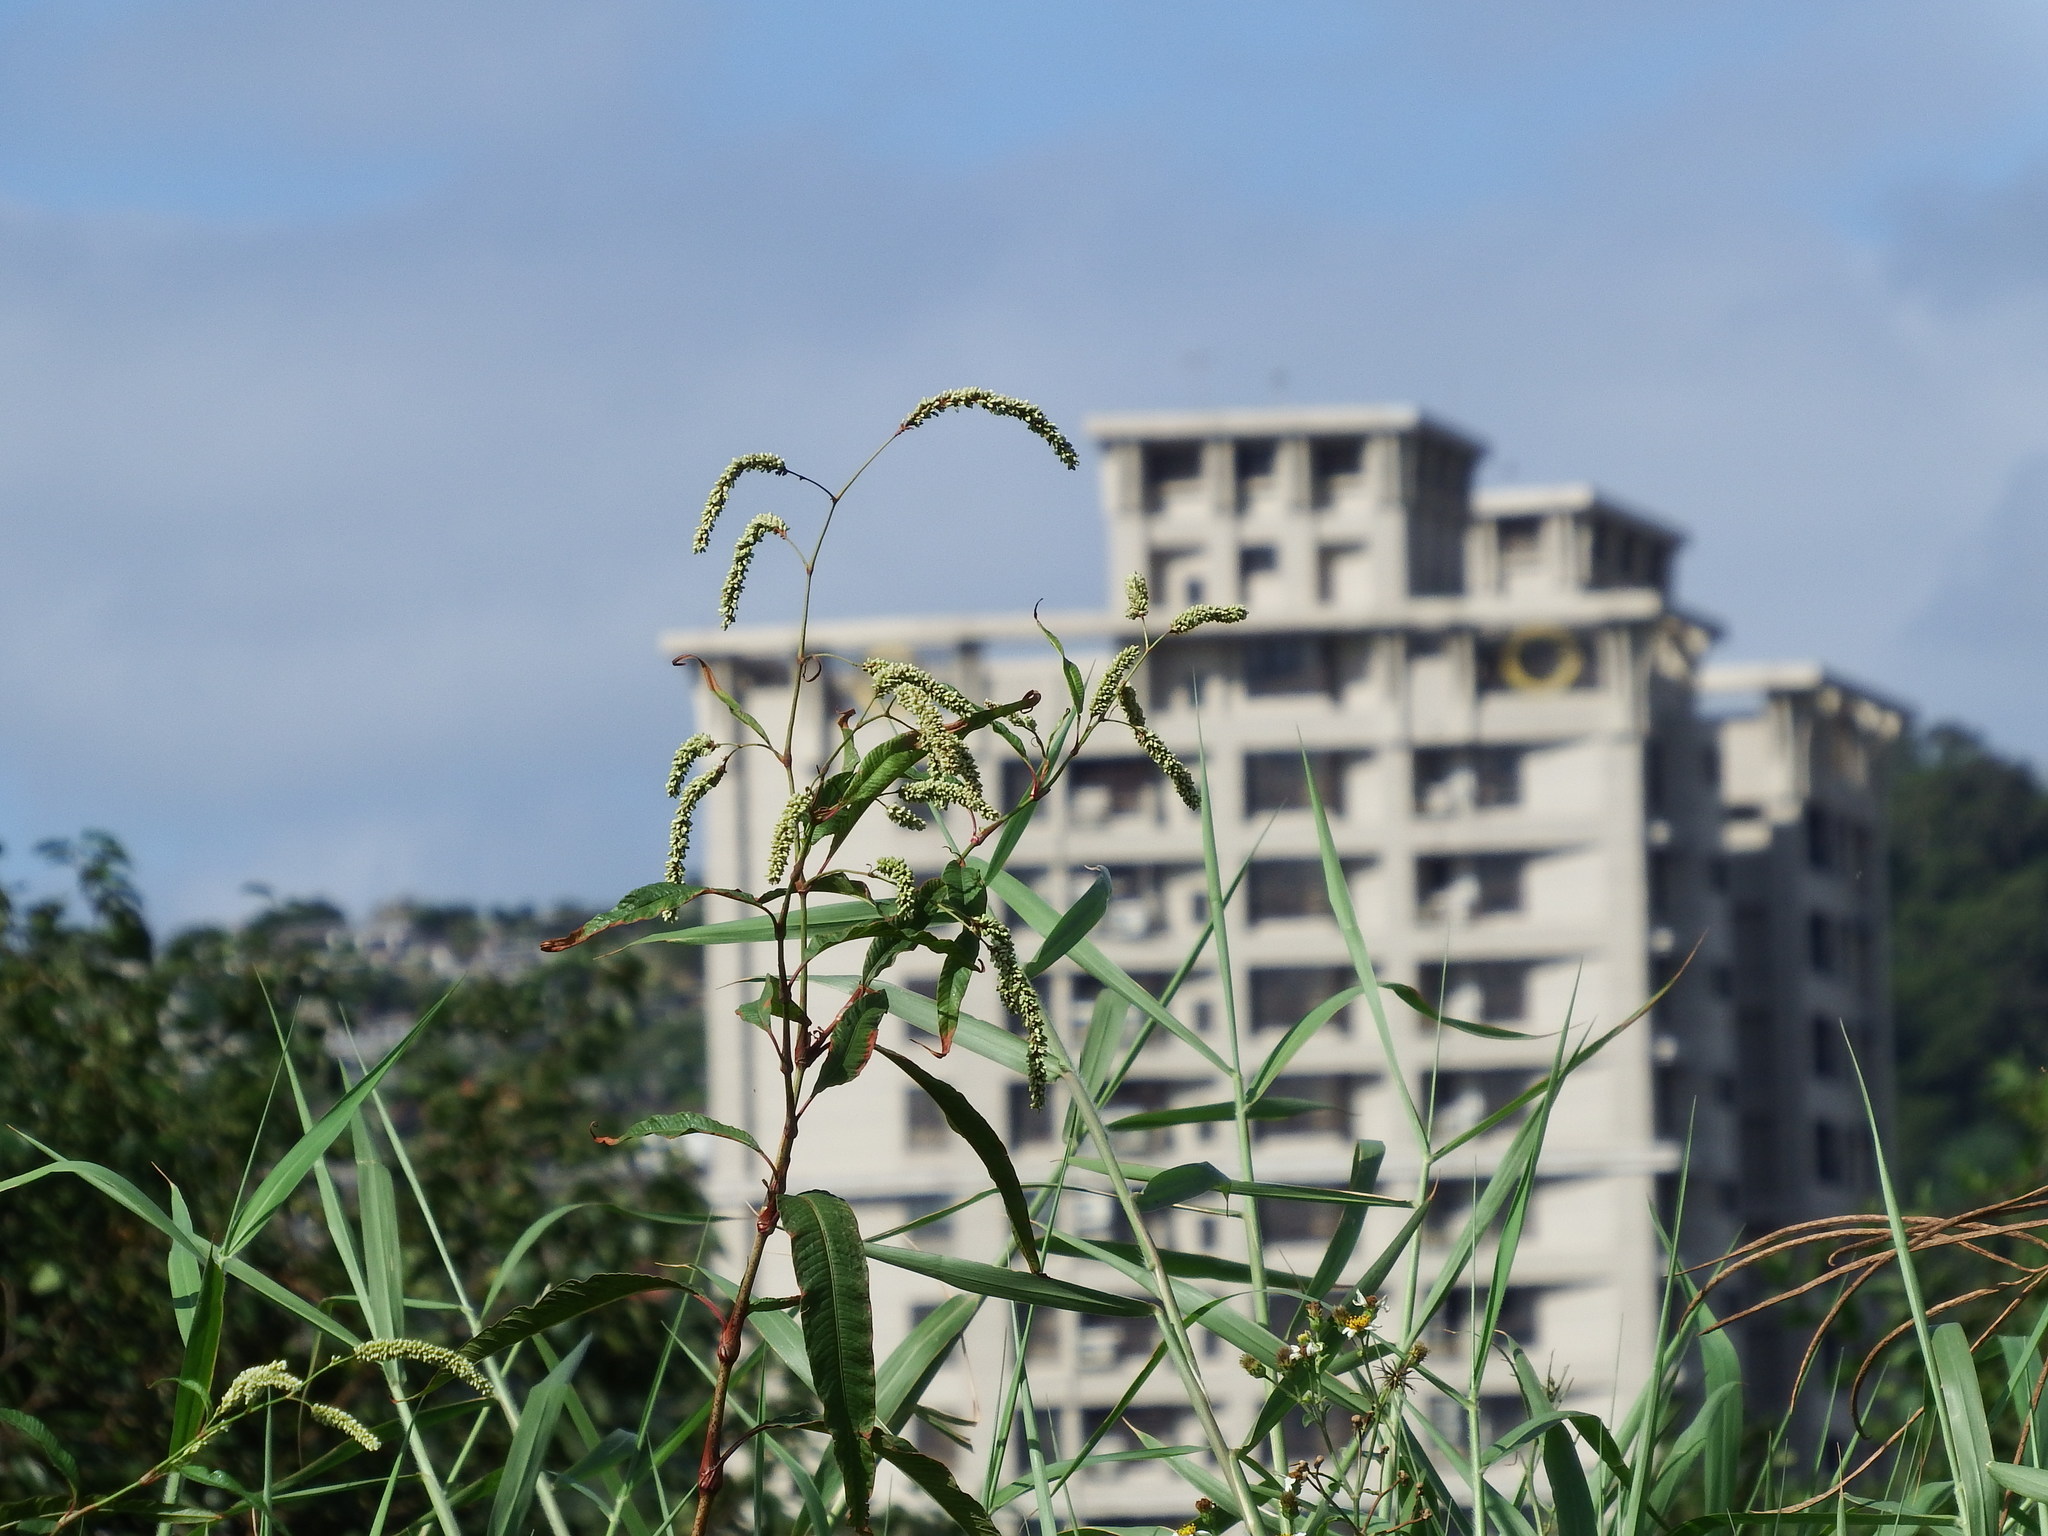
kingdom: Plantae
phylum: Tracheophyta
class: Magnoliopsida
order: Caryophyllales
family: Polygonaceae
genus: Persicaria
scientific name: Persicaria lanata
